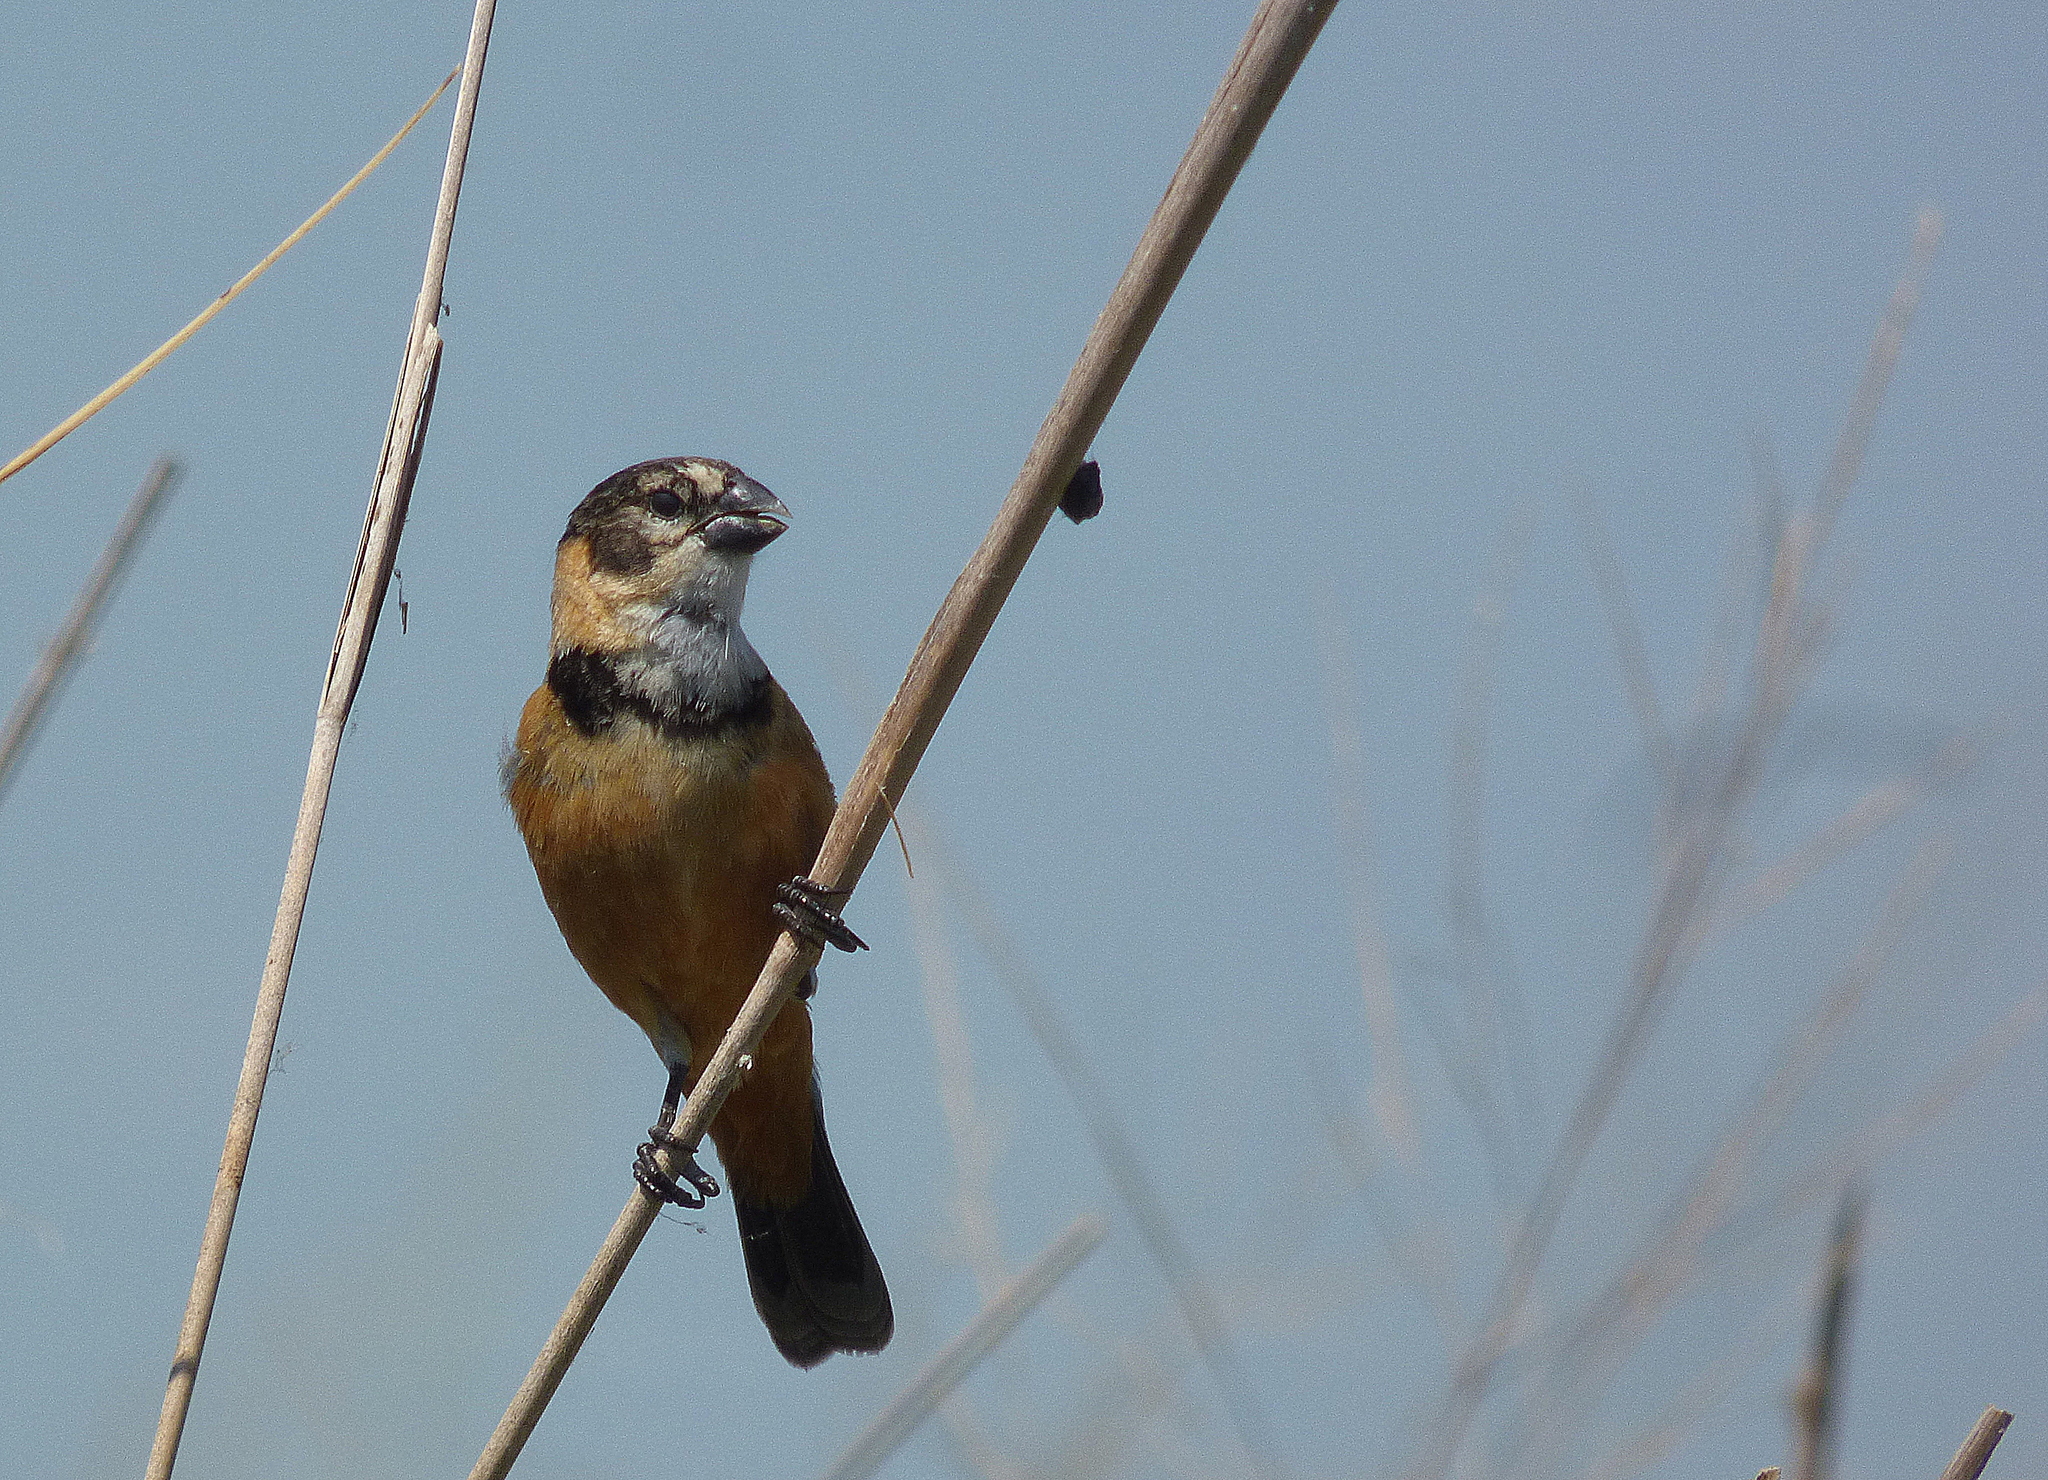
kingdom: Animalia
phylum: Chordata
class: Aves
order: Passeriformes
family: Thraupidae
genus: Sporophila
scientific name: Sporophila collaris
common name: Rusty-collared seedeater
